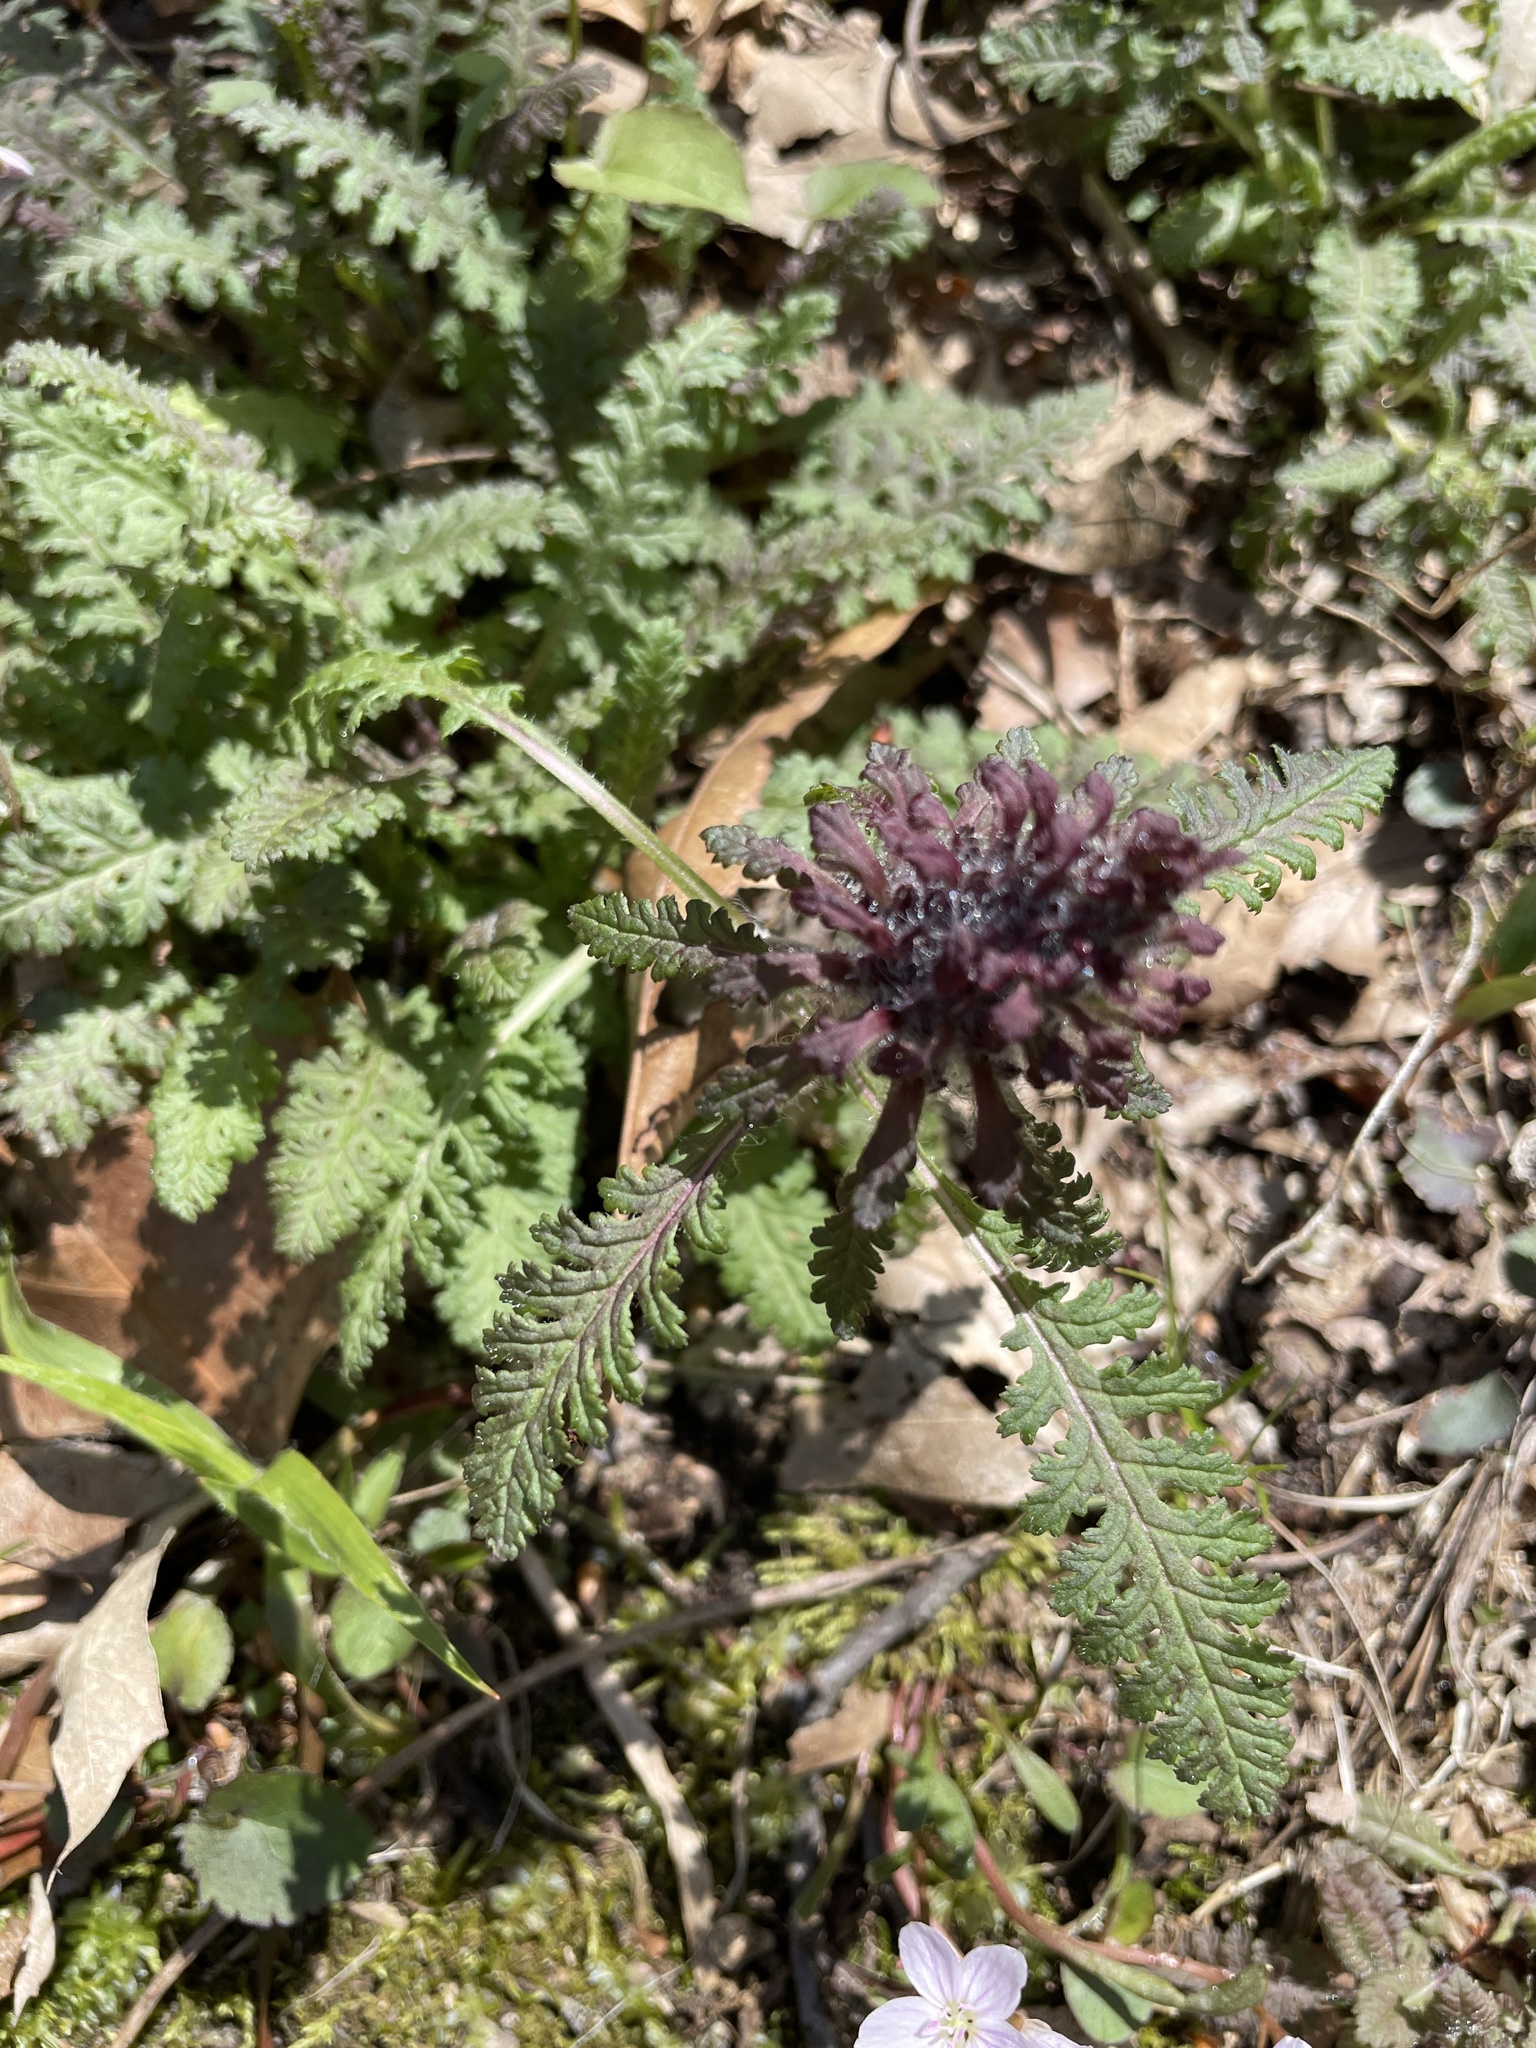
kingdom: Plantae
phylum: Tracheophyta
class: Magnoliopsida
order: Lamiales
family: Orobanchaceae
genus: Pedicularis
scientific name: Pedicularis canadensis
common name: Early lousewort
